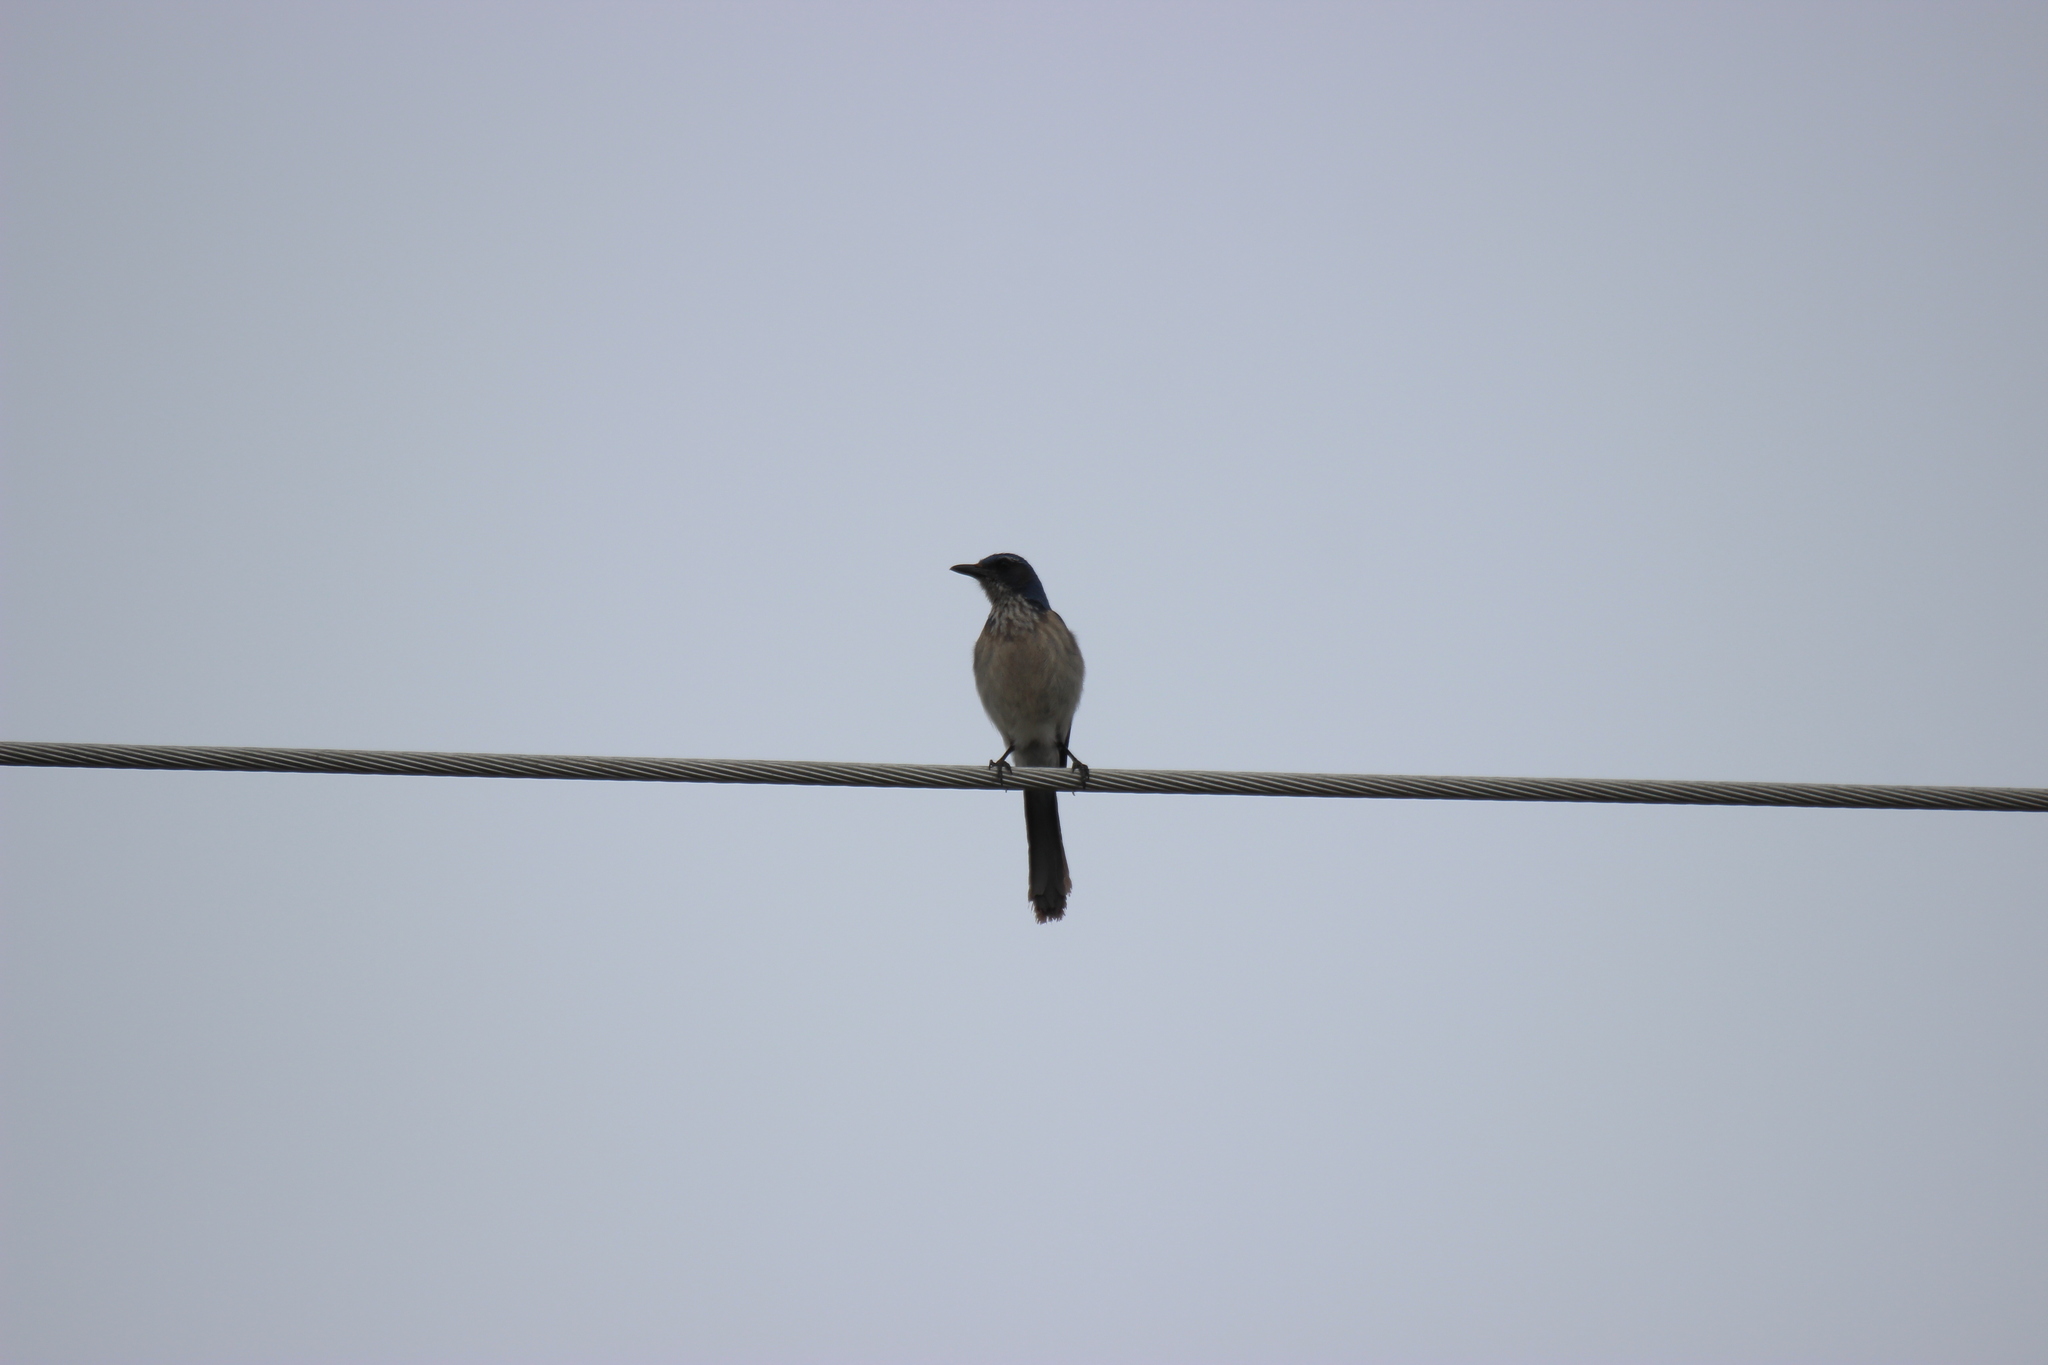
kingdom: Animalia
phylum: Chordata
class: Aves
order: Passeriformes
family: Corvidae
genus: Aphelocoma
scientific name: Aphelocoma woodhouseii
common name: Woodhouse's scrub-jay
